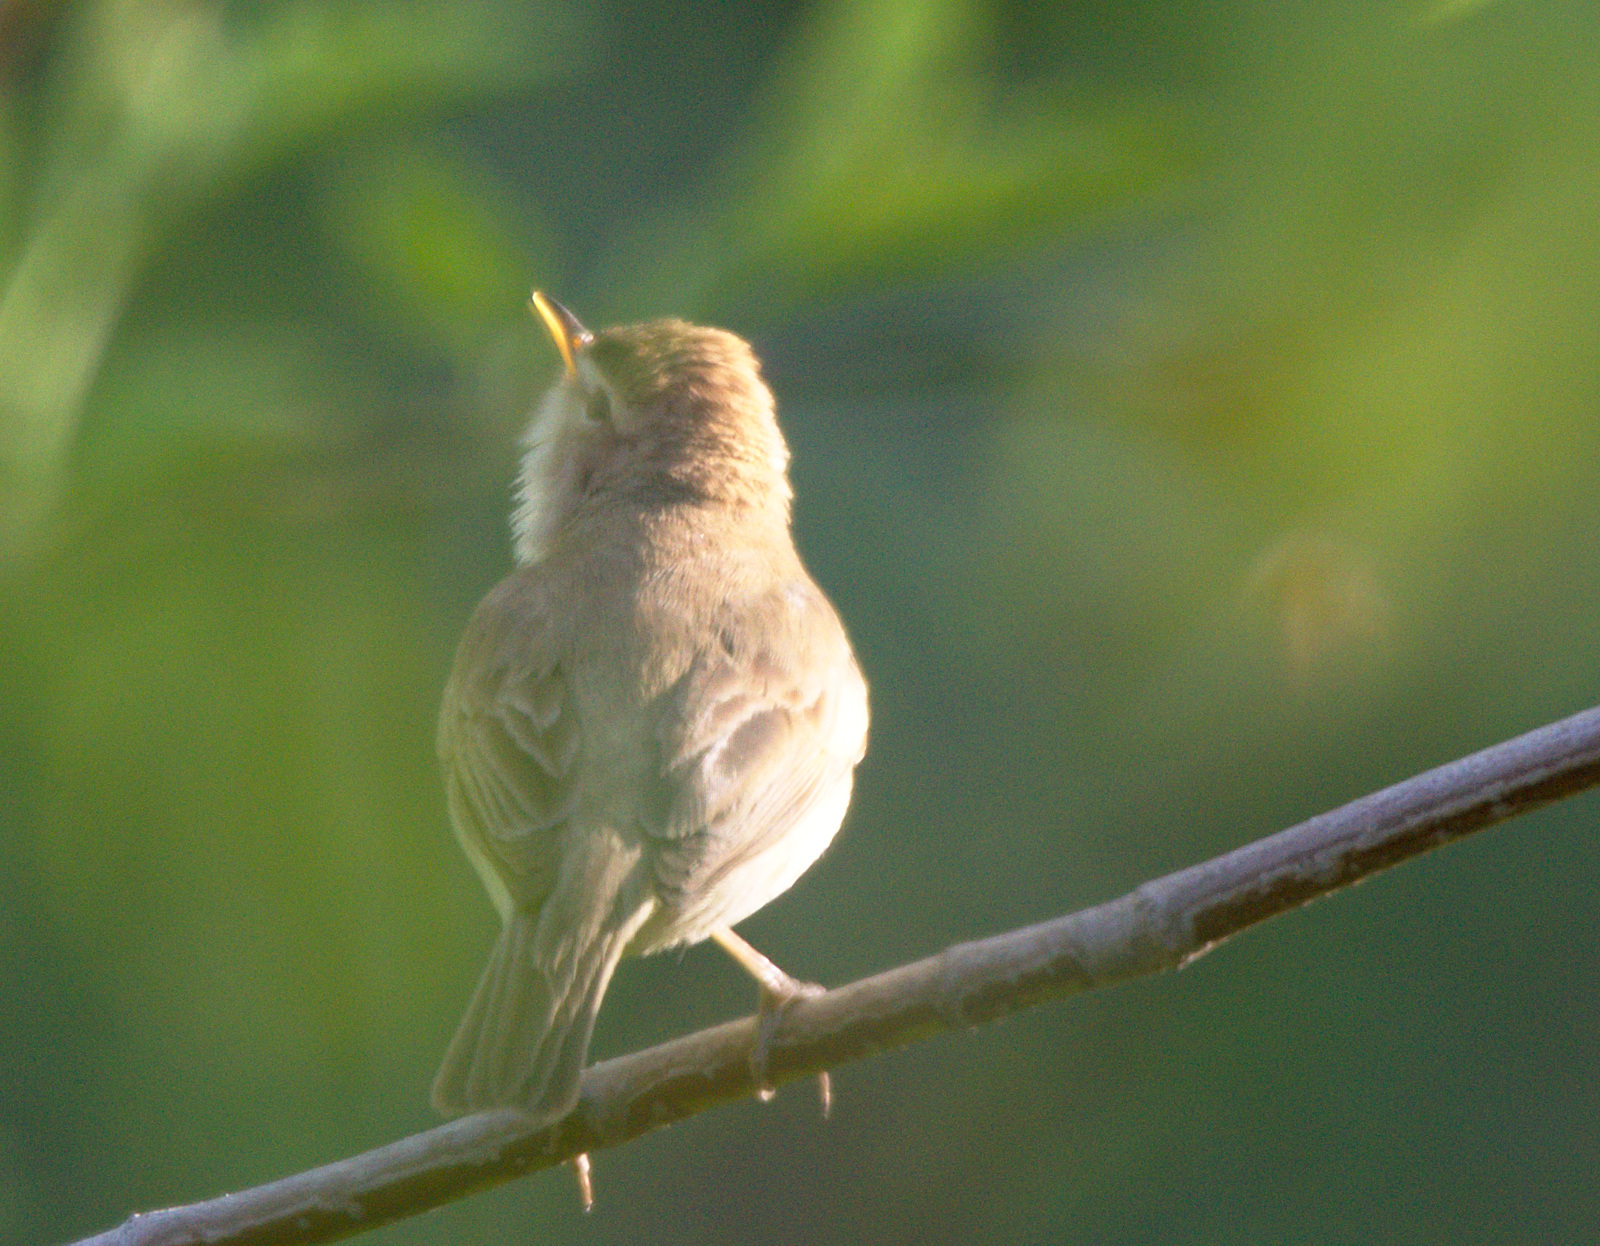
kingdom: Animalia
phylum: Chordata
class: Aves
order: Passeriformes
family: Acrocephalidae
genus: Iduna
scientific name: Iduna caligata
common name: Booted warbler
